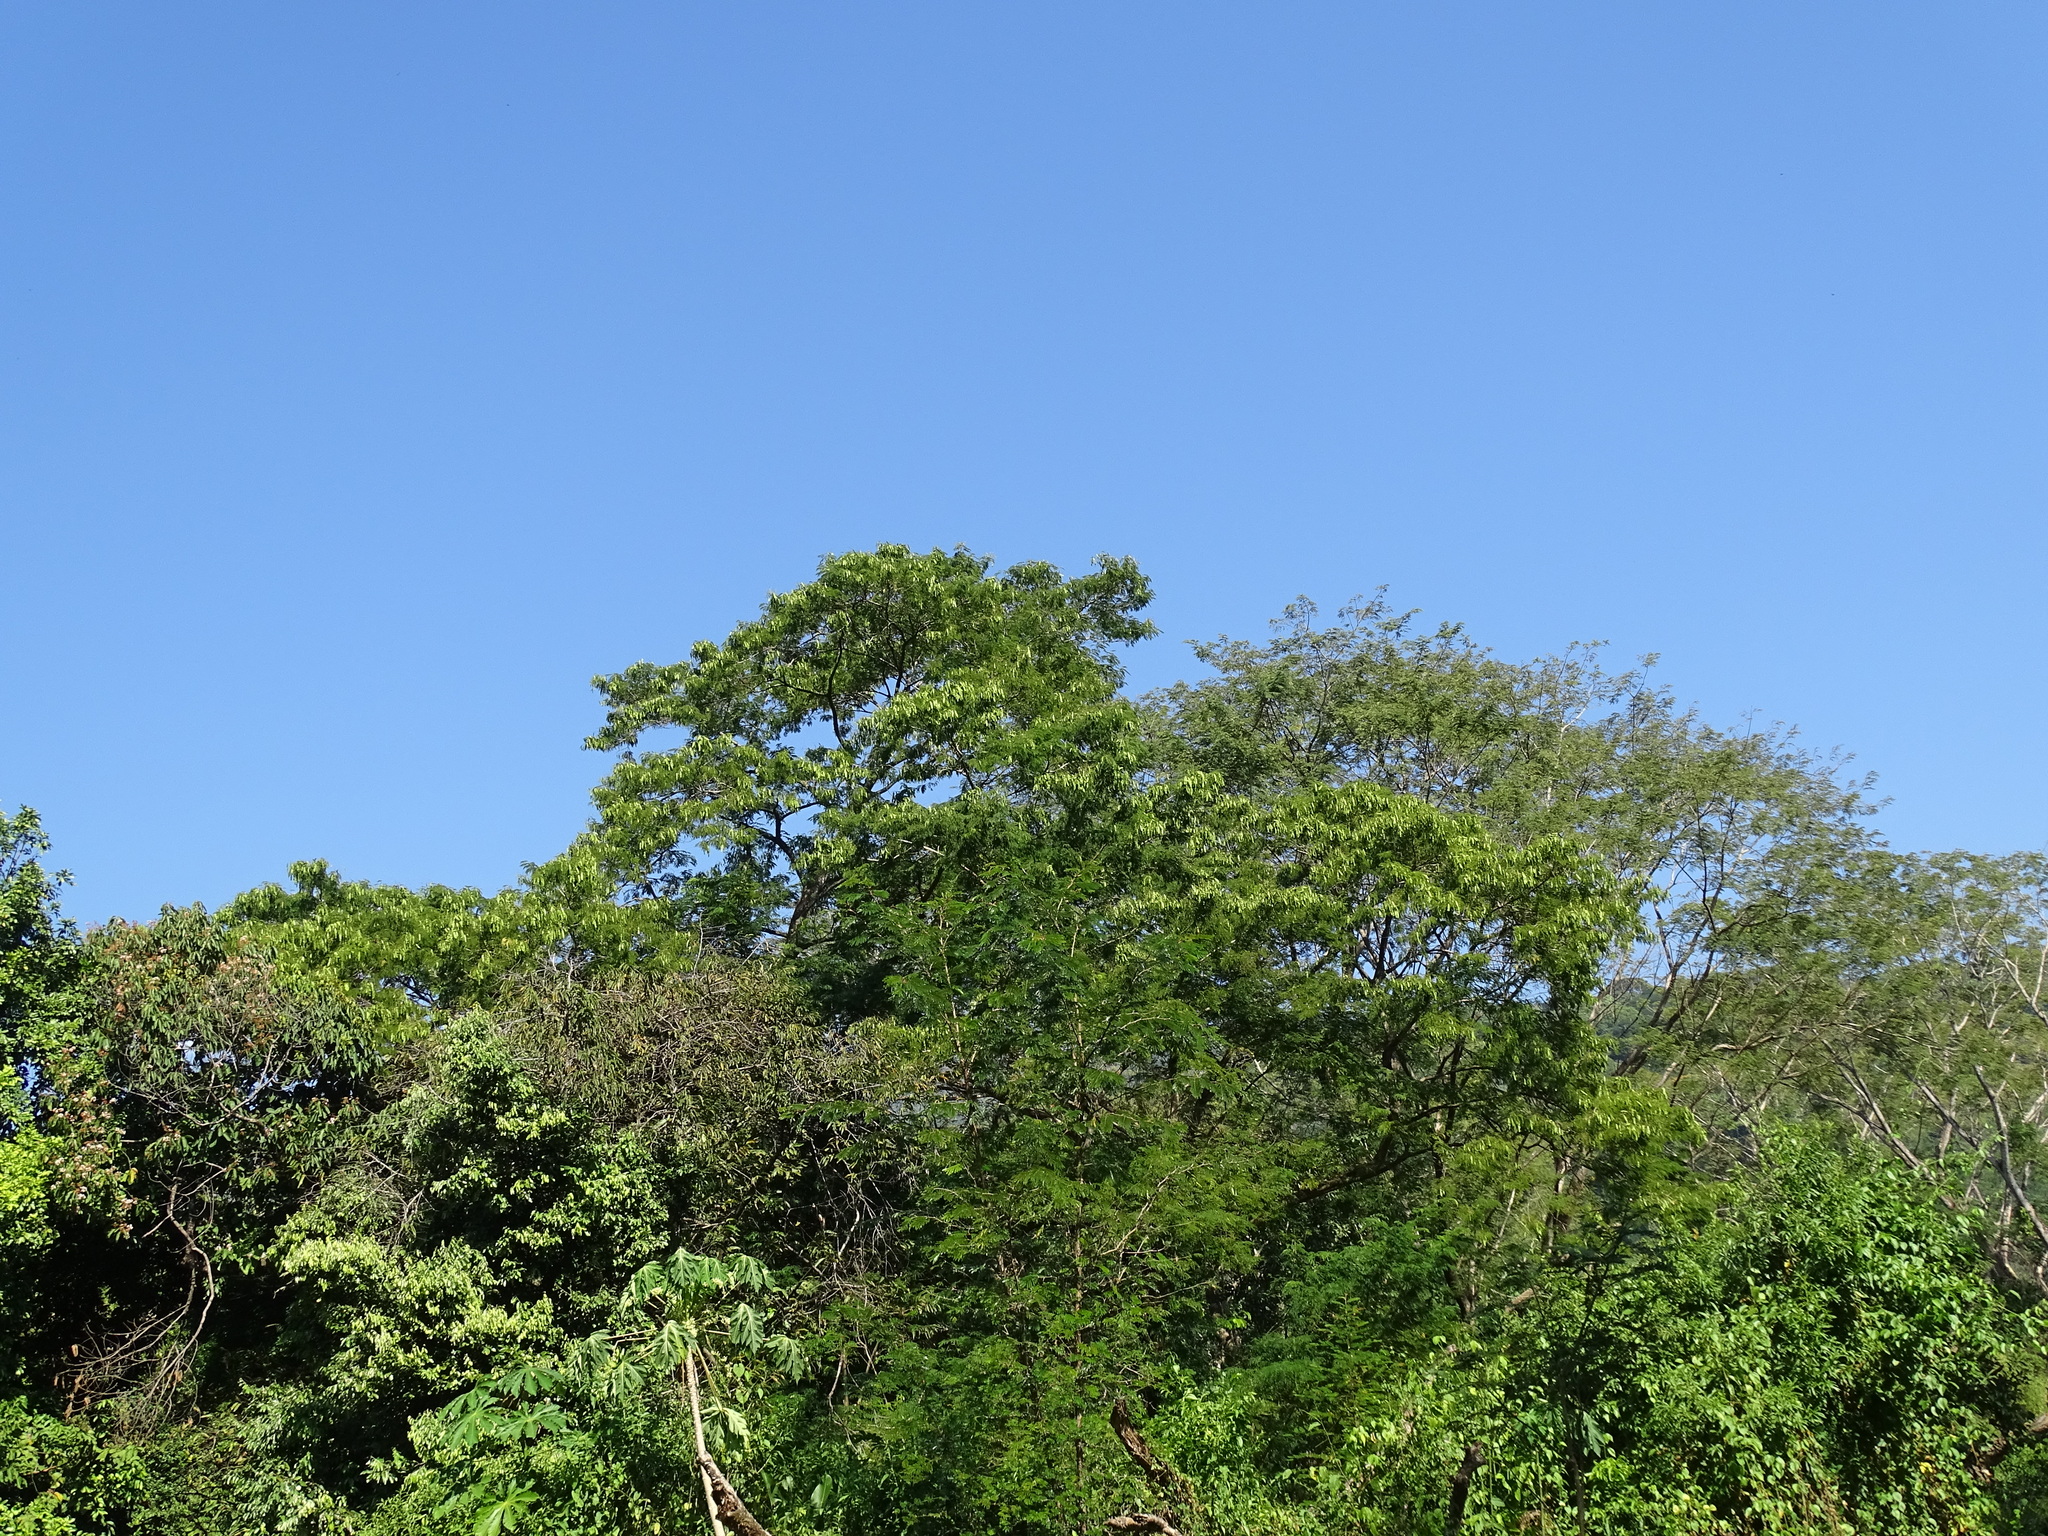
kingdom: Plantae
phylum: Tracheophyta
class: Magnoliopsida
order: Fabales
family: Fabaceae
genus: Lysiloma
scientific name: Lysiloma divaricatum
